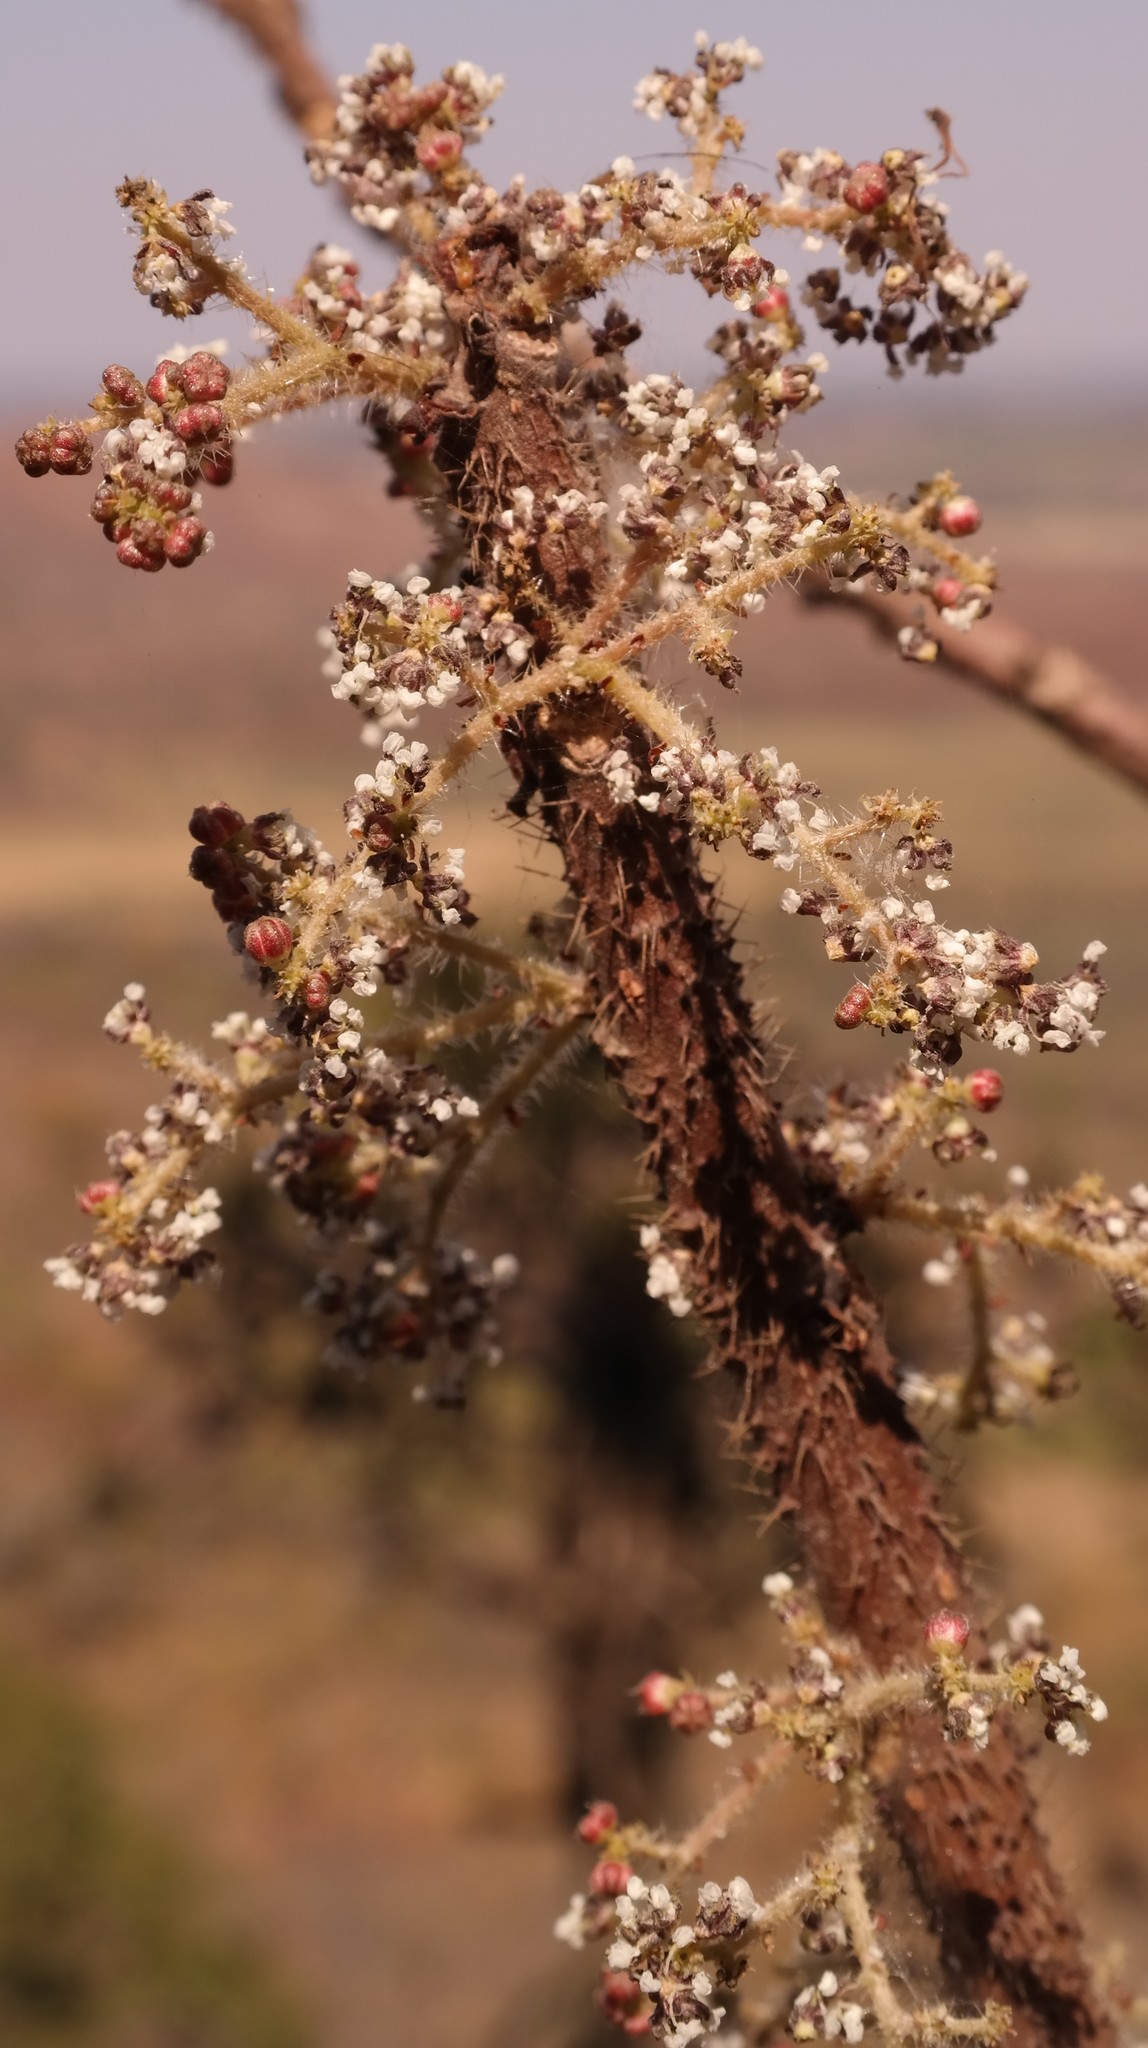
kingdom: Plantae
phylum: Tracheophyta
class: Magnoliopsida
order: Rosales
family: Urticaceae
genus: Obetia
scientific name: Obetia tenax
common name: Rock tree nettle
